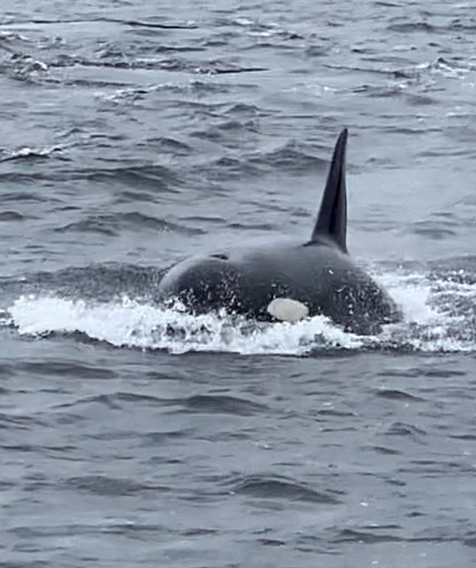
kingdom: Animalia
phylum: Chordata
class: Mammalia
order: Cetacea
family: Delphinidae
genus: Orcinus
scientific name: Orcinus orca
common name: Killer whale
